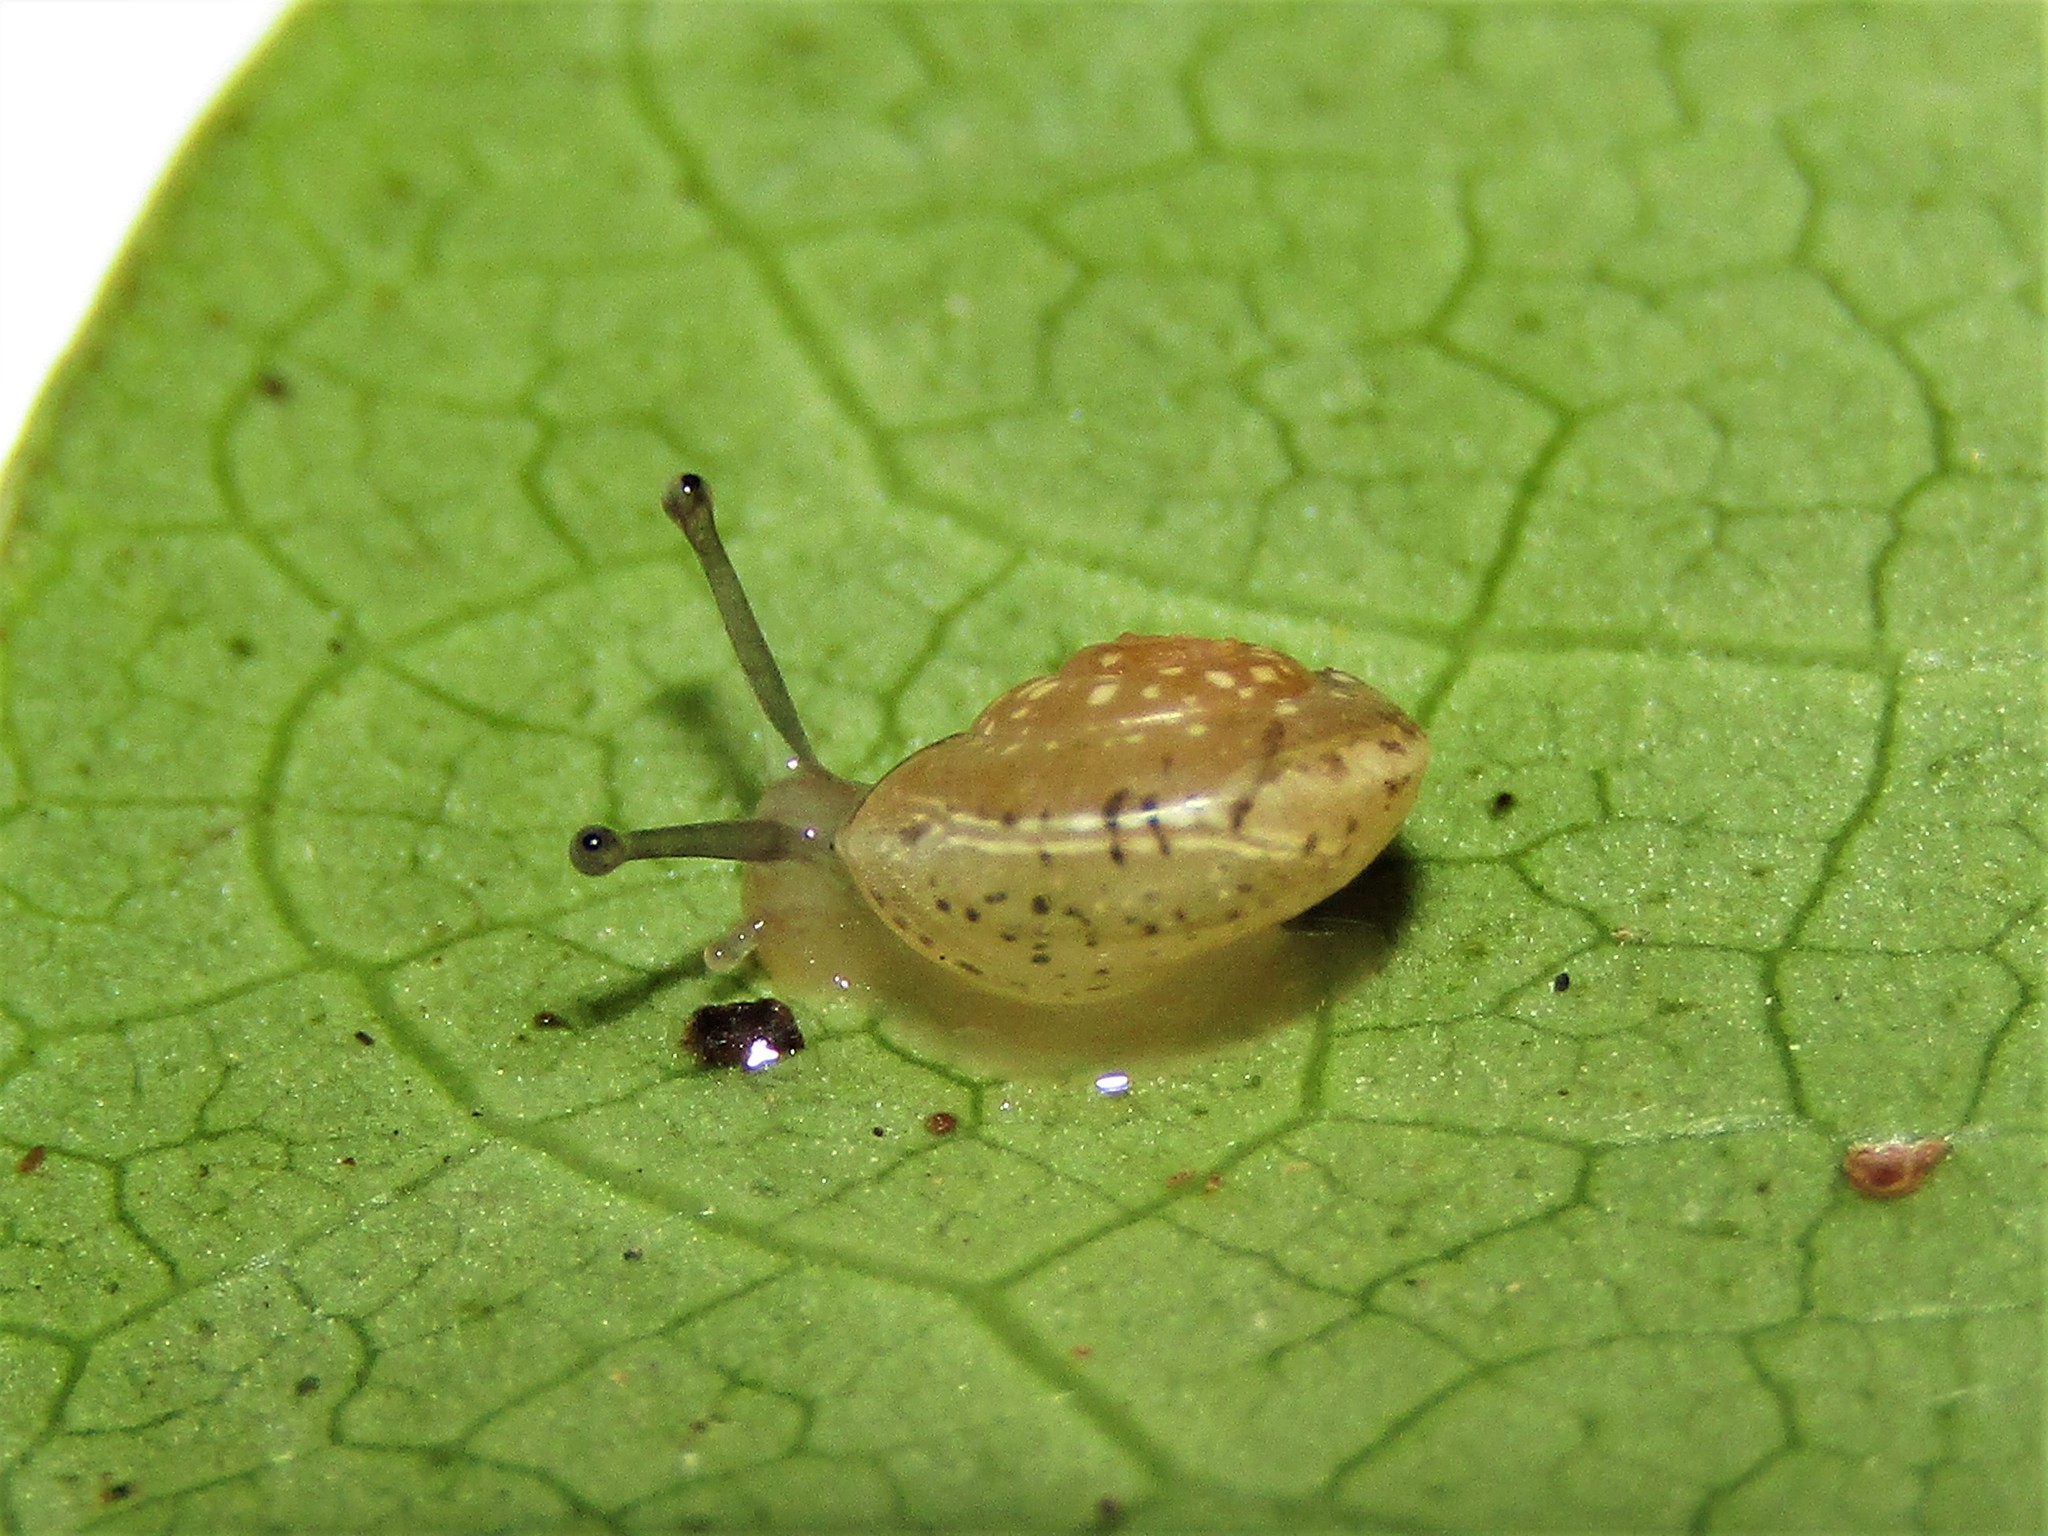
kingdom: Animalia
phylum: Mollusca
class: Gastropoda
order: Stylommatophora
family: Hygromiidae
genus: Hygromia
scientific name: Hygromia cinctella
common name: Girdled snail
